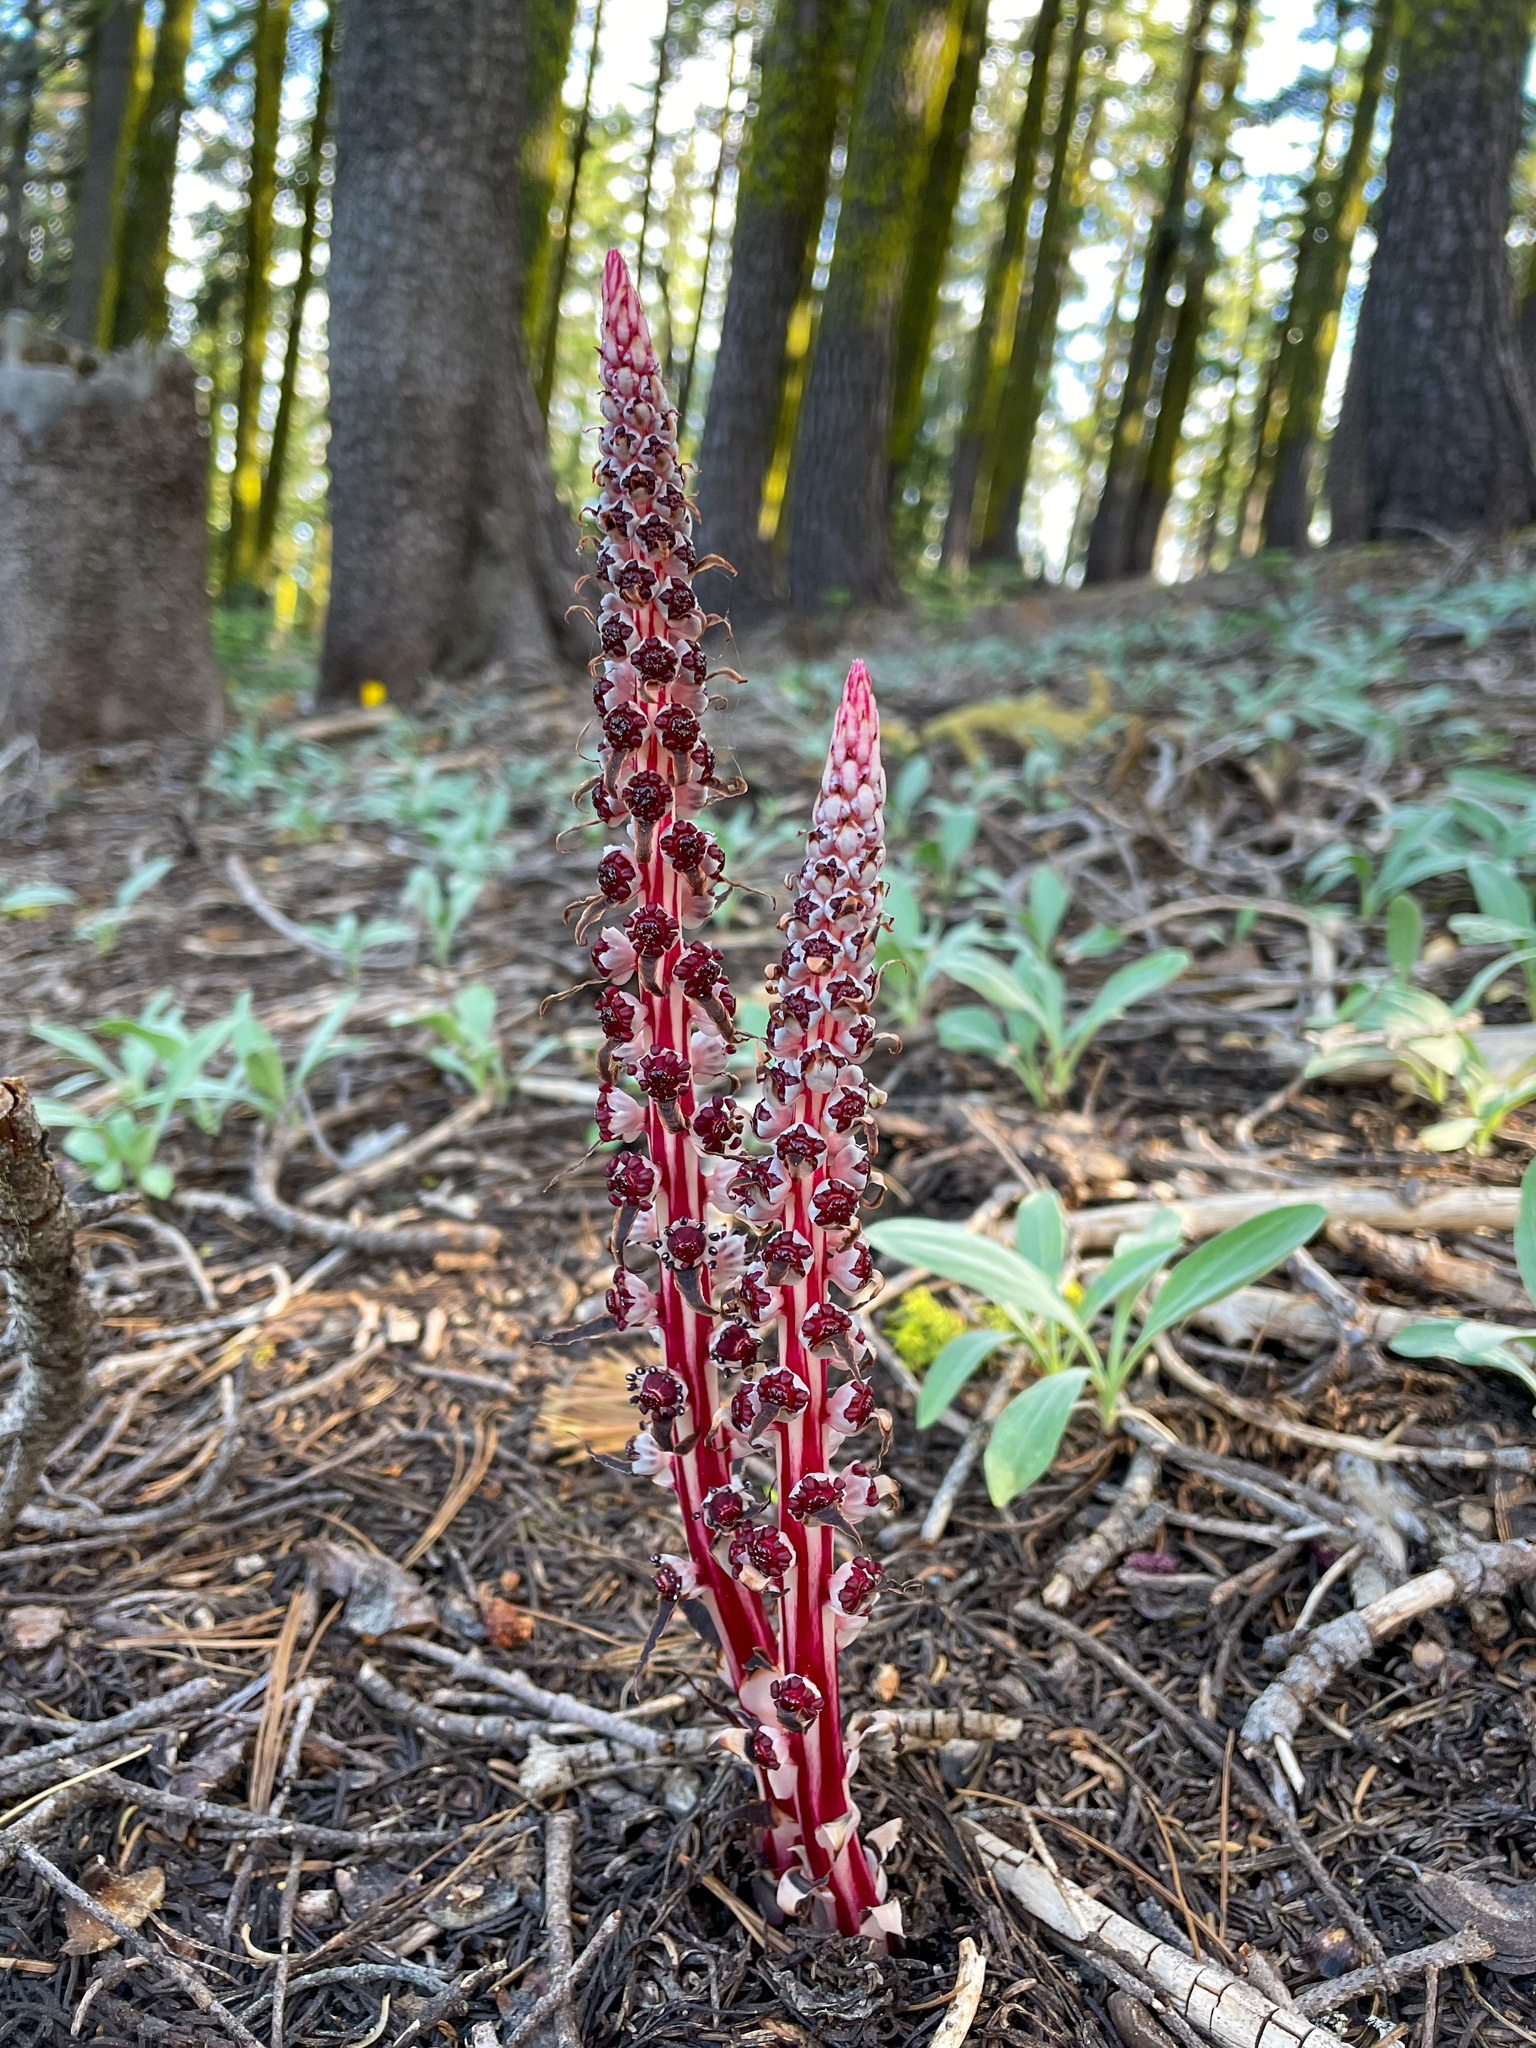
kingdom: Plantae
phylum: Tracheophyta
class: Magnoliopsida
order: Ericales
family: Ericaceae
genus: Allotropa
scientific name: Allotropa virgata
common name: Candy-striped allotropa
